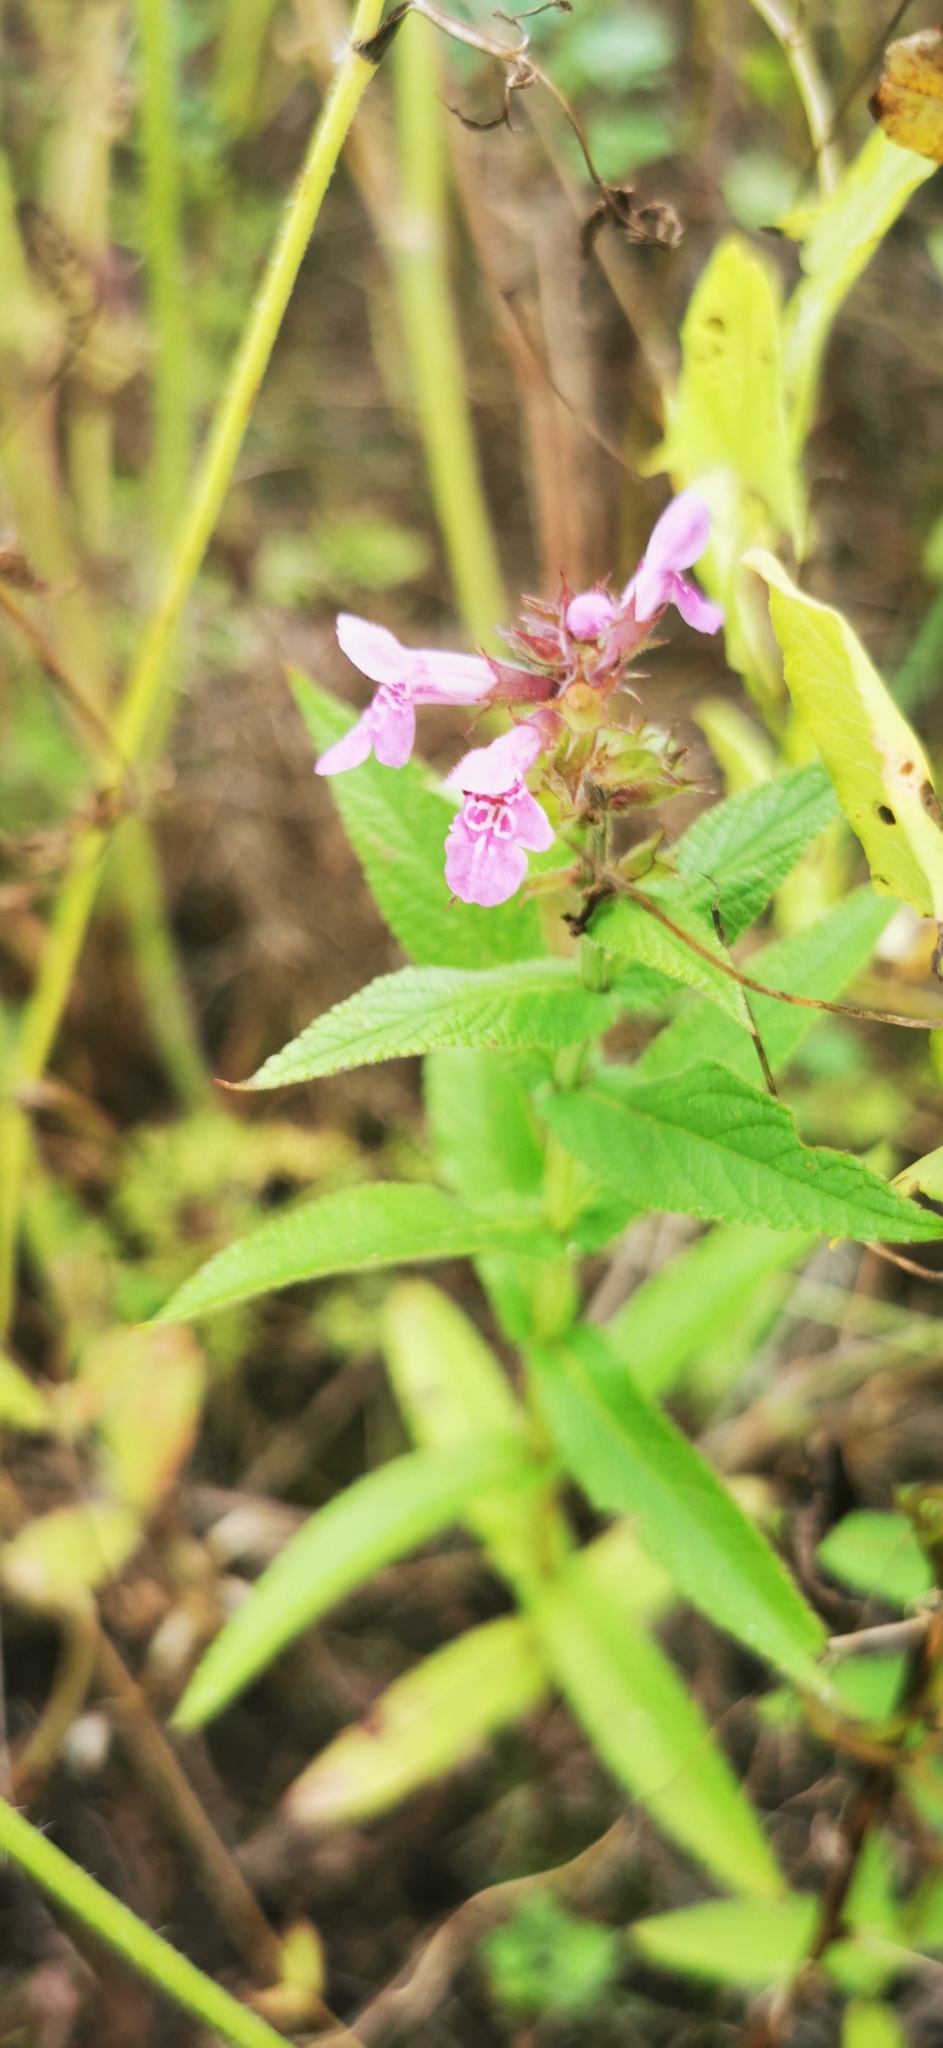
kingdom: Plantae
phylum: Tracheophyta
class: Magnoliopsida
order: Lamiales
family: Lamiaceae
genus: Stachys
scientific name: Stachys palustris
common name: Marsh woundwort
